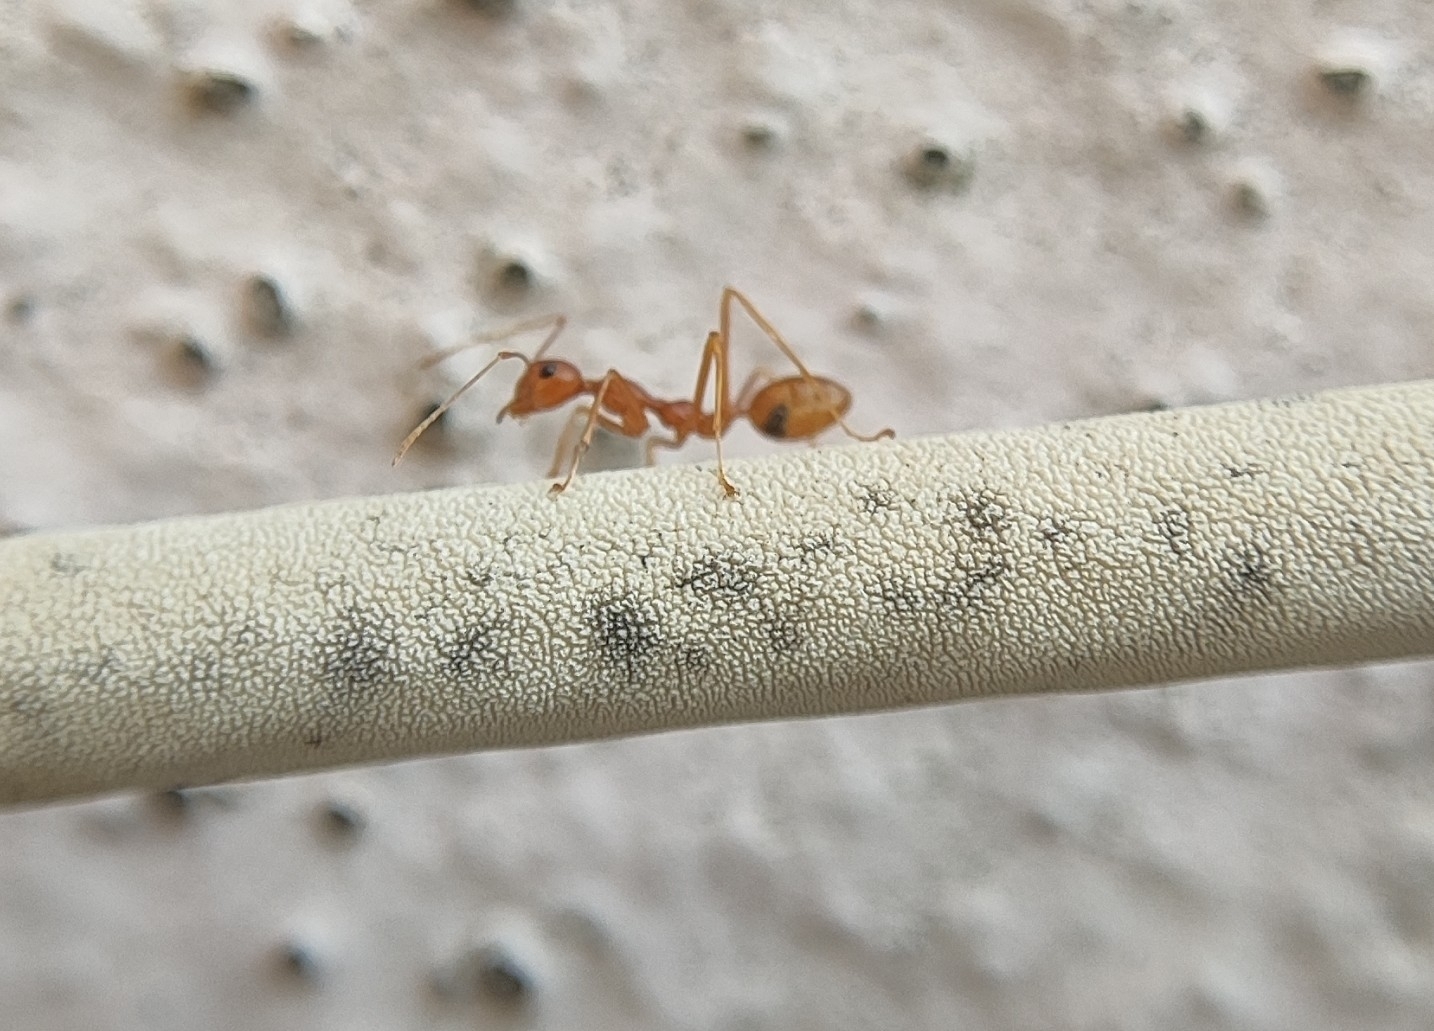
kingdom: Animalia
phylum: Arthropoda
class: Insecta
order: Hymenoptera
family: Formicidae
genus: Oecophylla
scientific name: Oecophylla smaragdina
